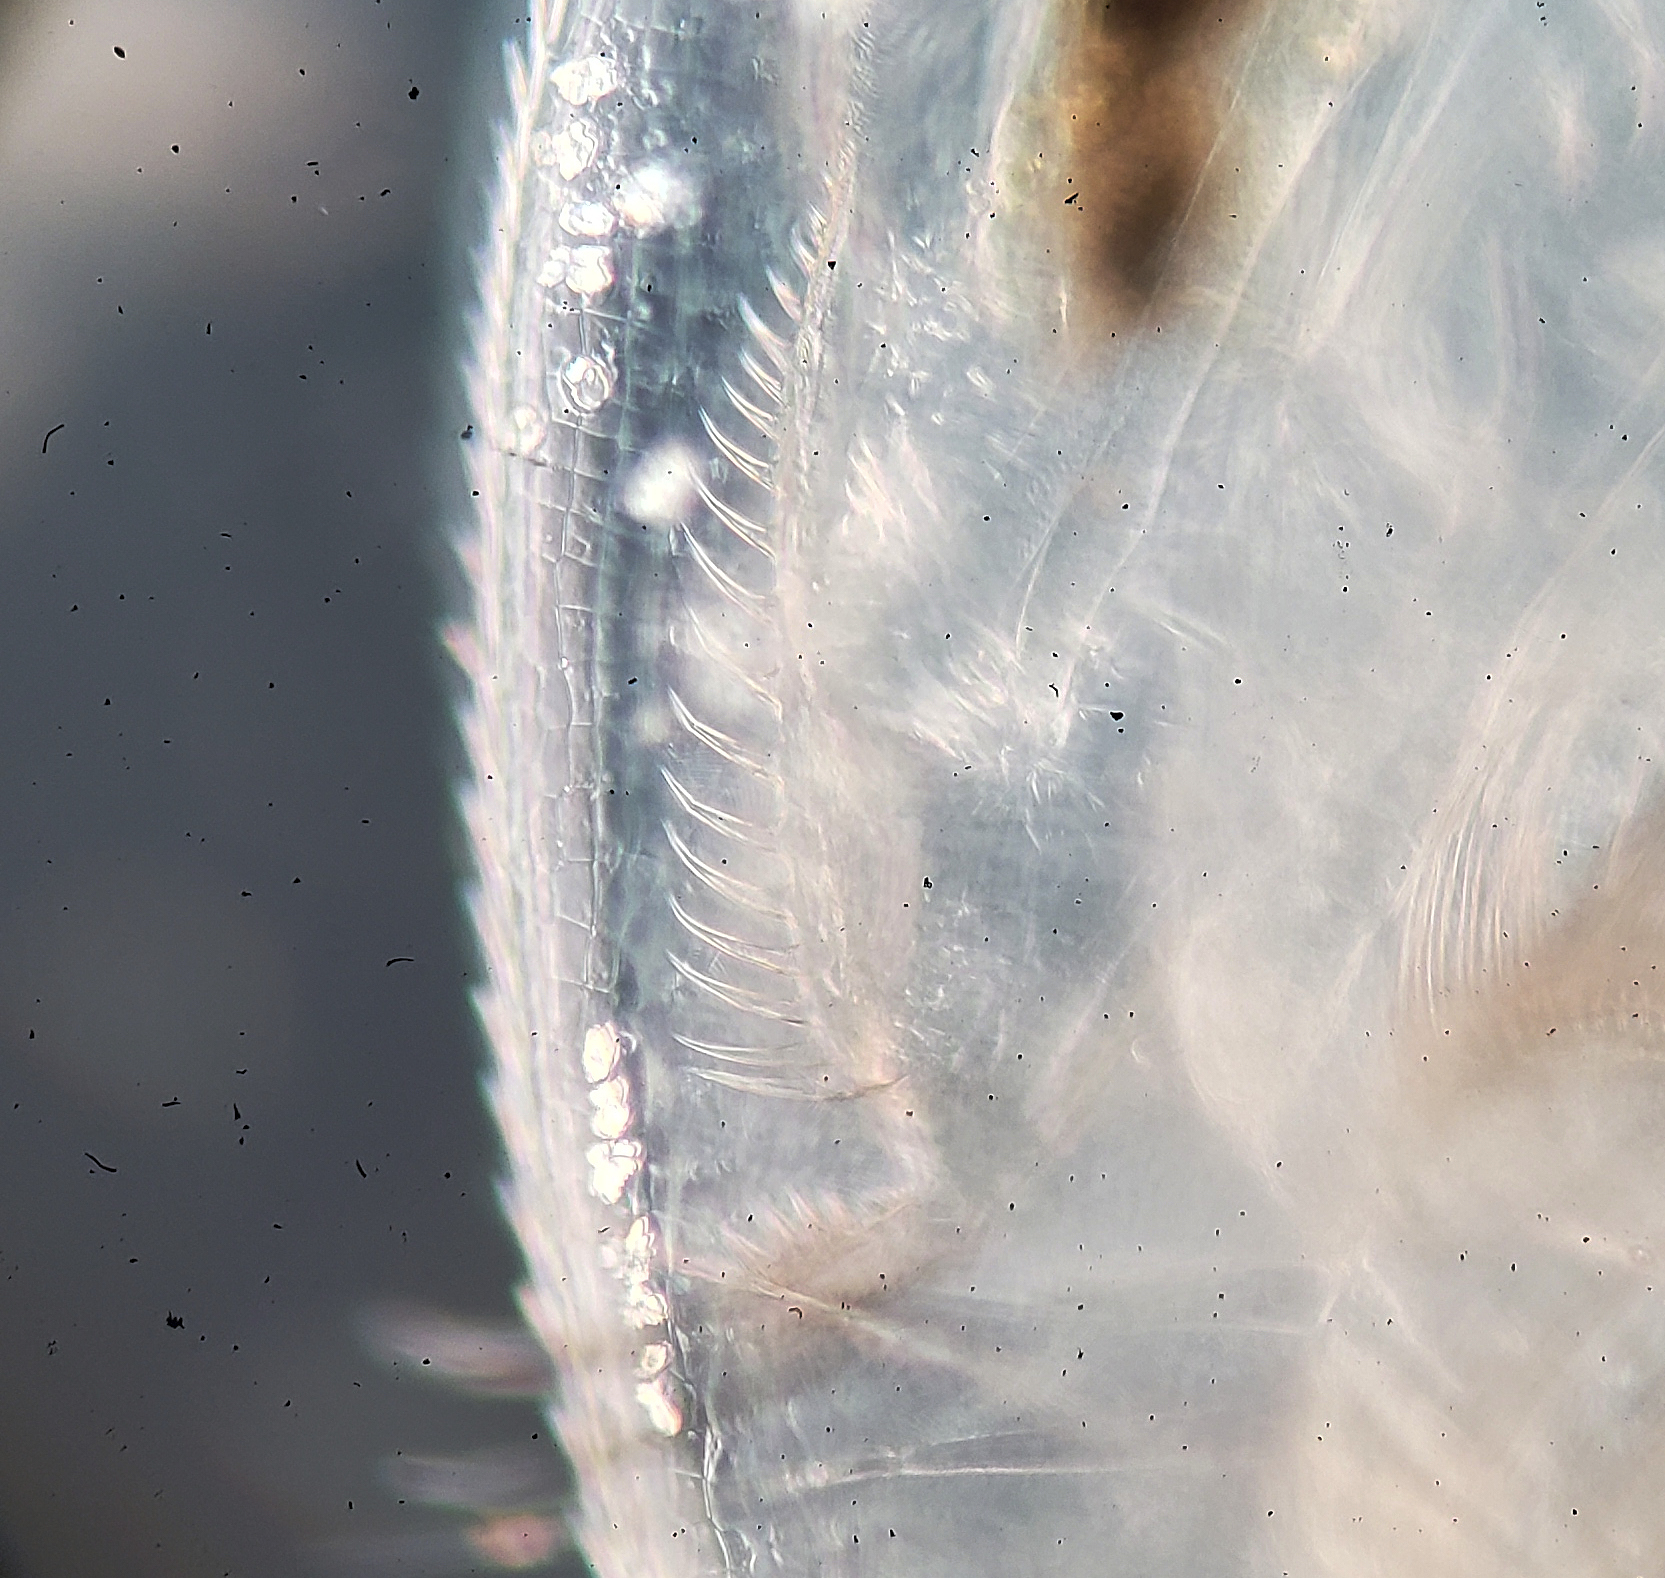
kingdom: Animalia
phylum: Arthropoda
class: Branchiopoda
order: Diplostraca
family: Daphniidae
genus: Daphnia
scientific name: Daphnia pulicaria
